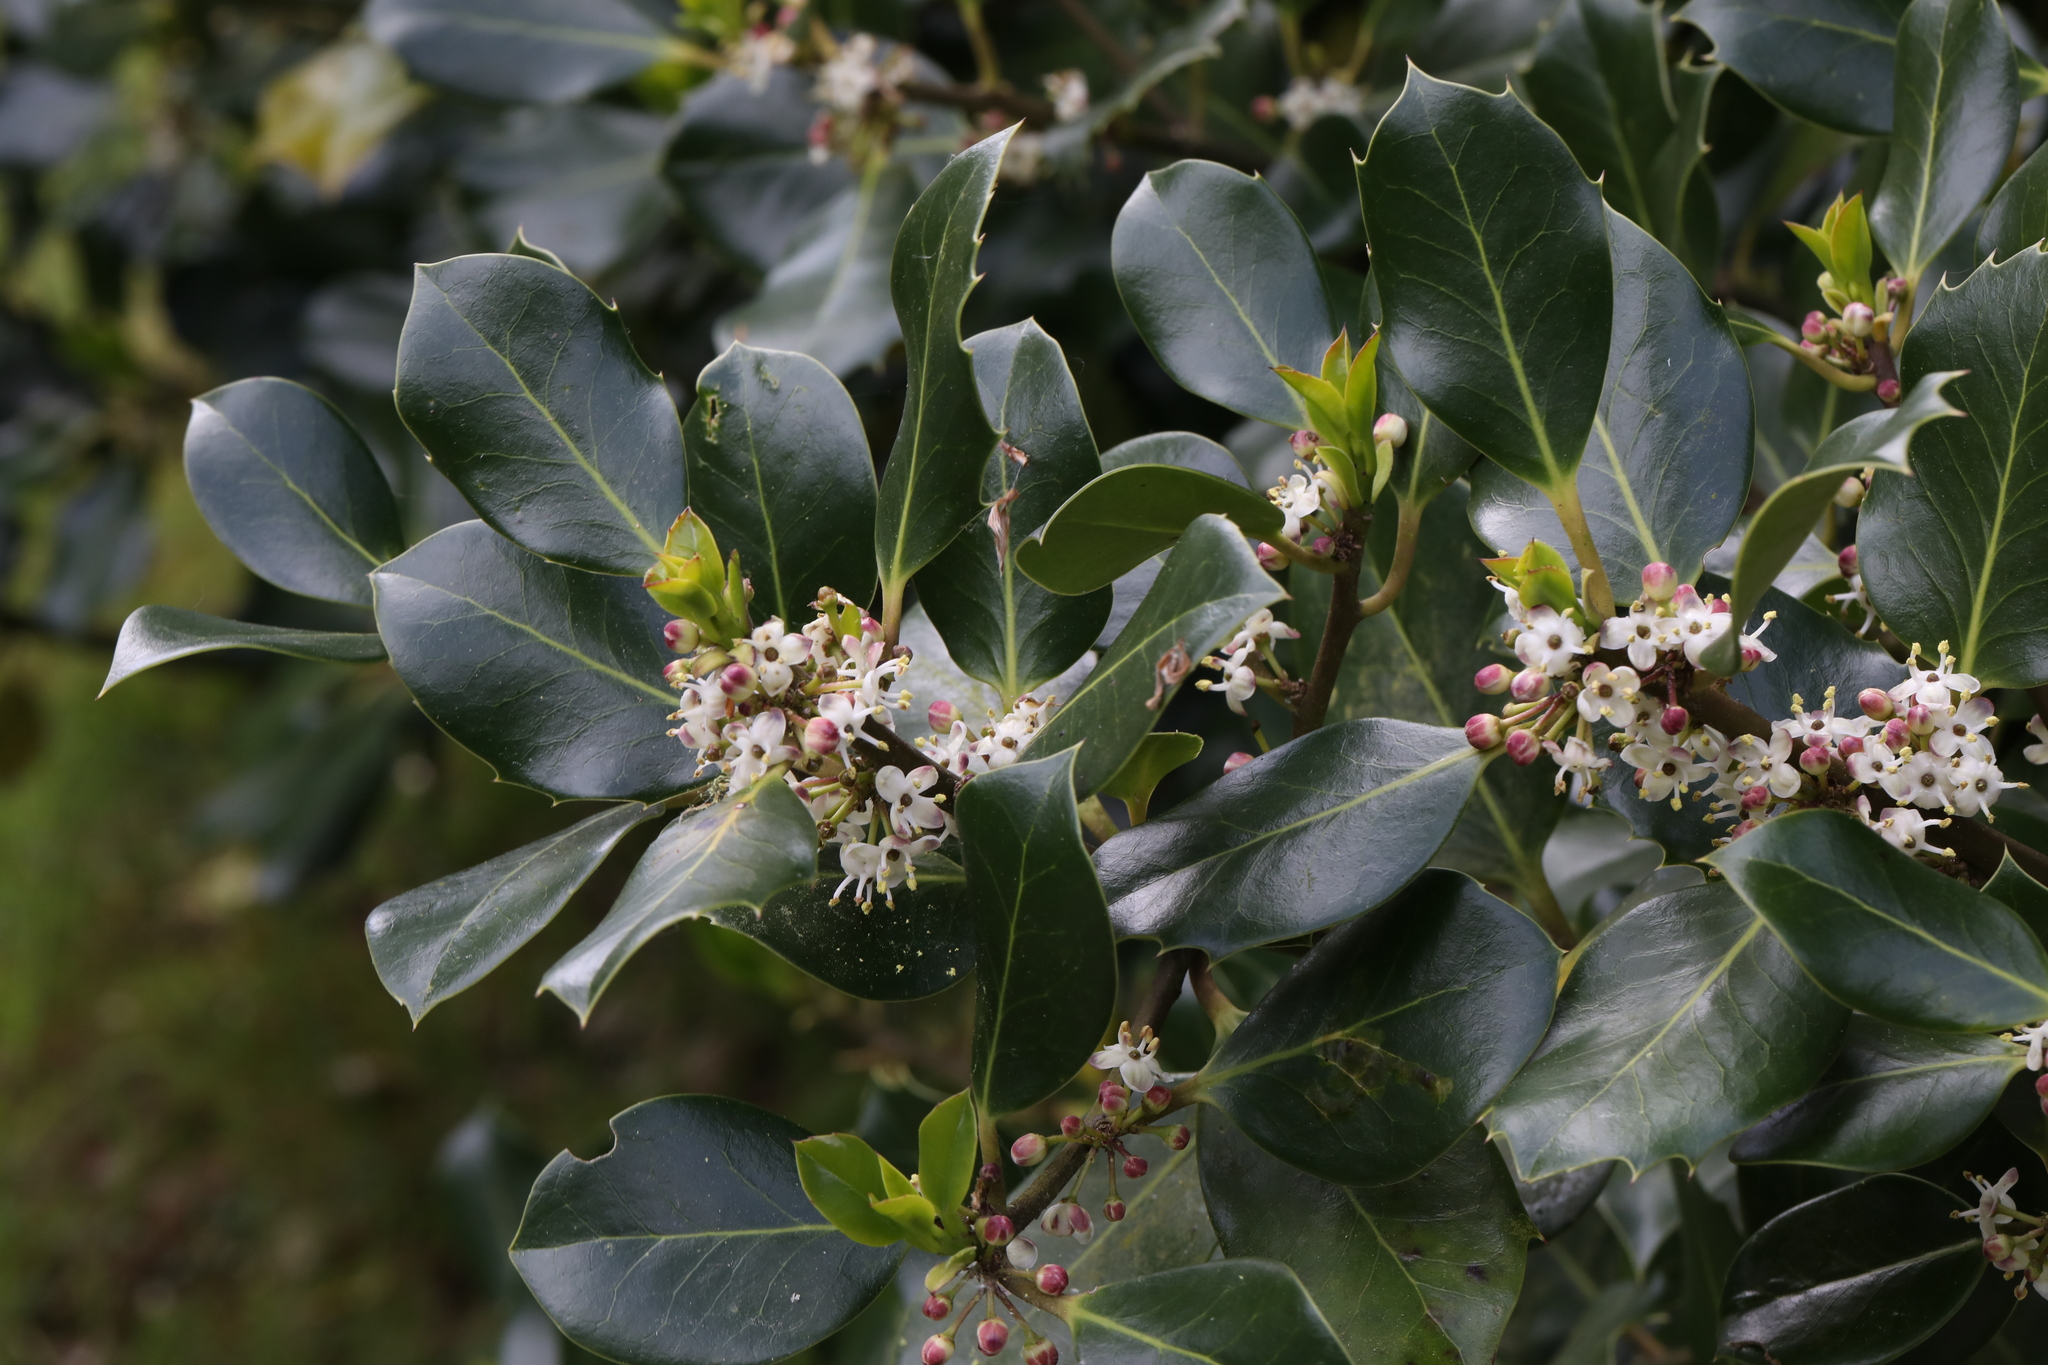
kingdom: Plantae
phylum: Tracheophyta
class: Magnoliopsida
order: Aquifoliales
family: Aquifoliaceae
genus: Ilex
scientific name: Ilex aquifolium
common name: English holly
